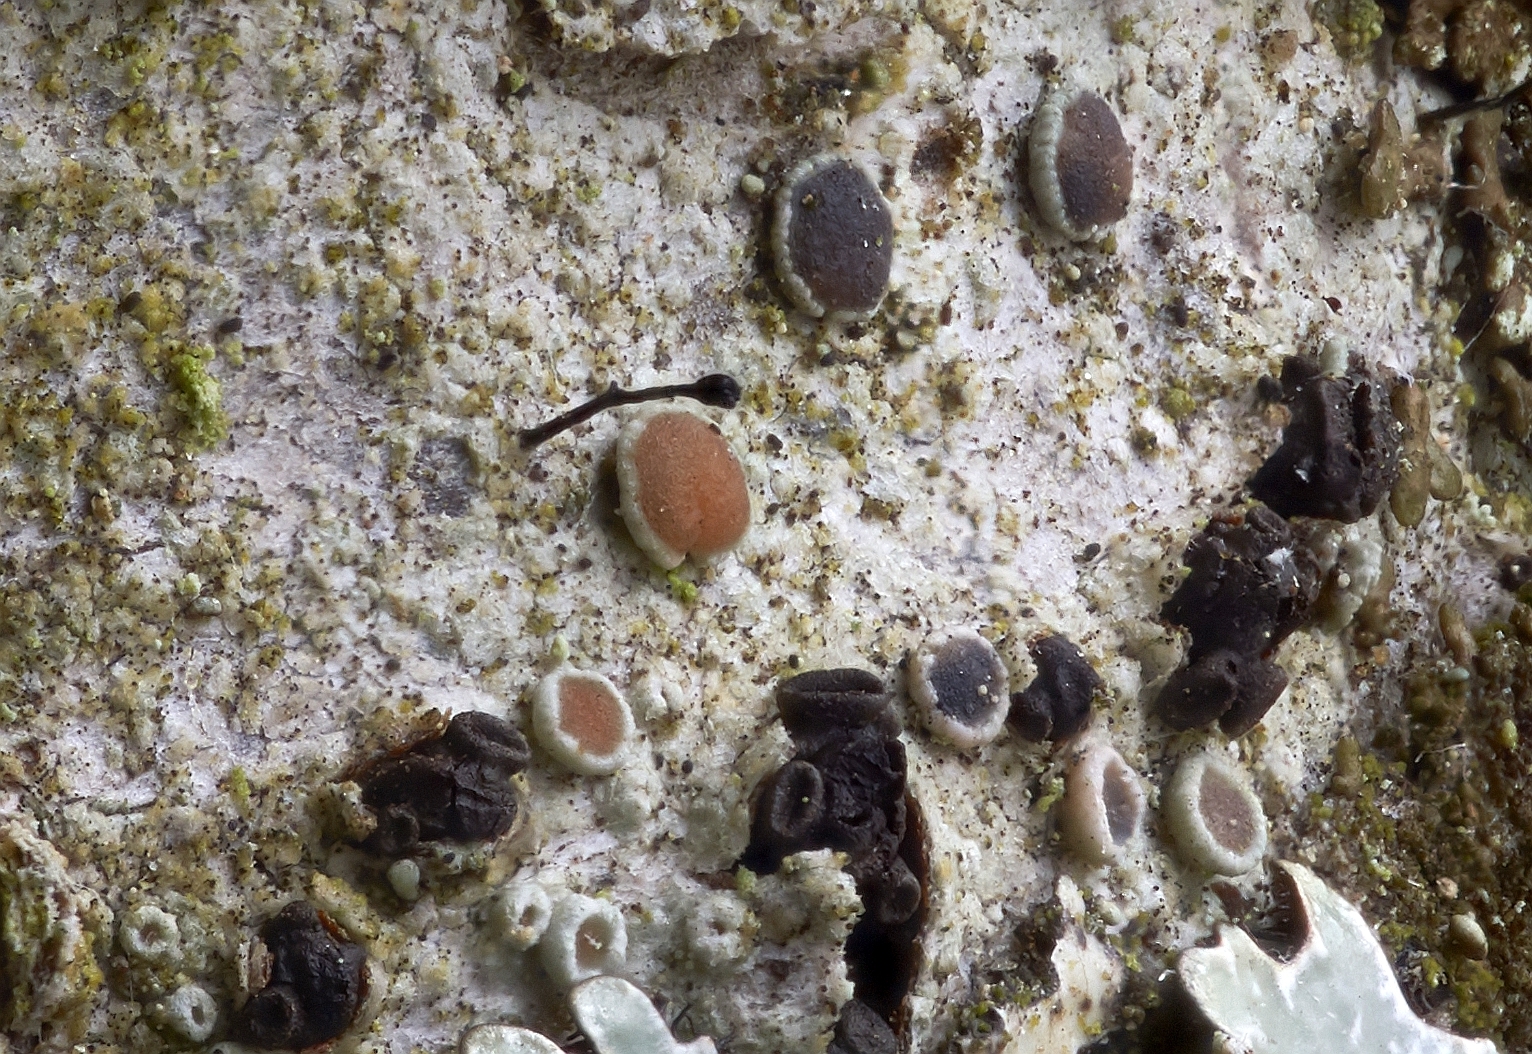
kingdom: Fungi
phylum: Ascomycota
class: Eurotiomycetes
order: Mycocaliciales
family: Mycocaliciaceae
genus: Stenocybe
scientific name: Stenocybe major
